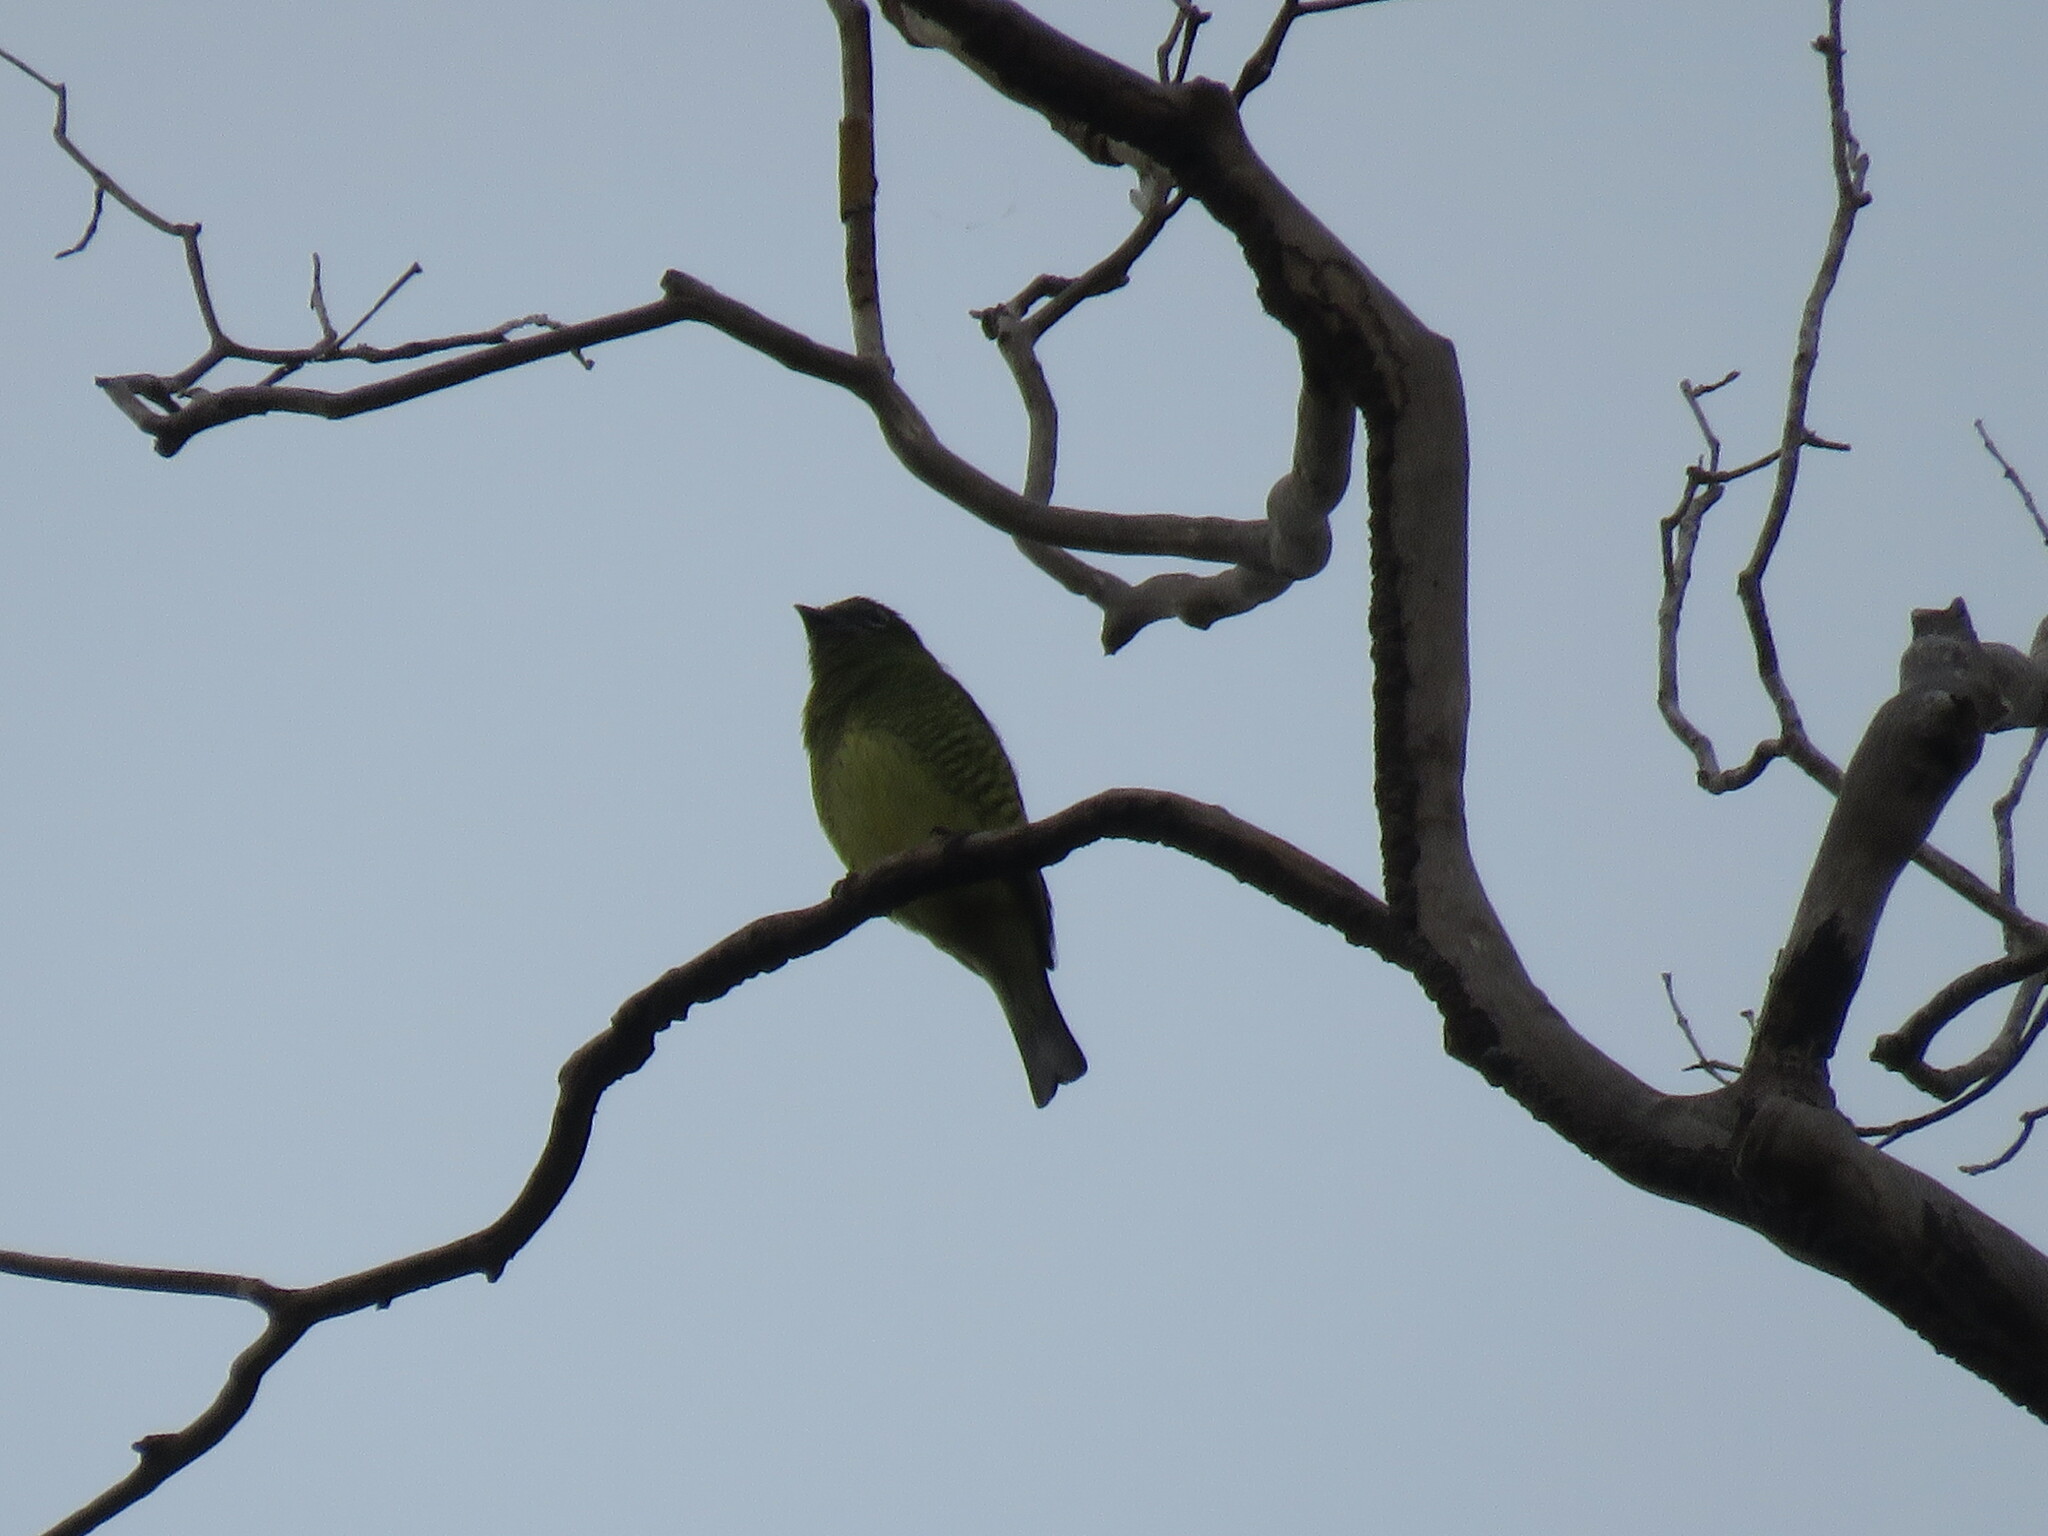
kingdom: Animalia
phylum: Chordata
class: Aves
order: Passeriformes
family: Thraupidae
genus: Tersina
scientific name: Tersina viridis
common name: Swallow tanager
